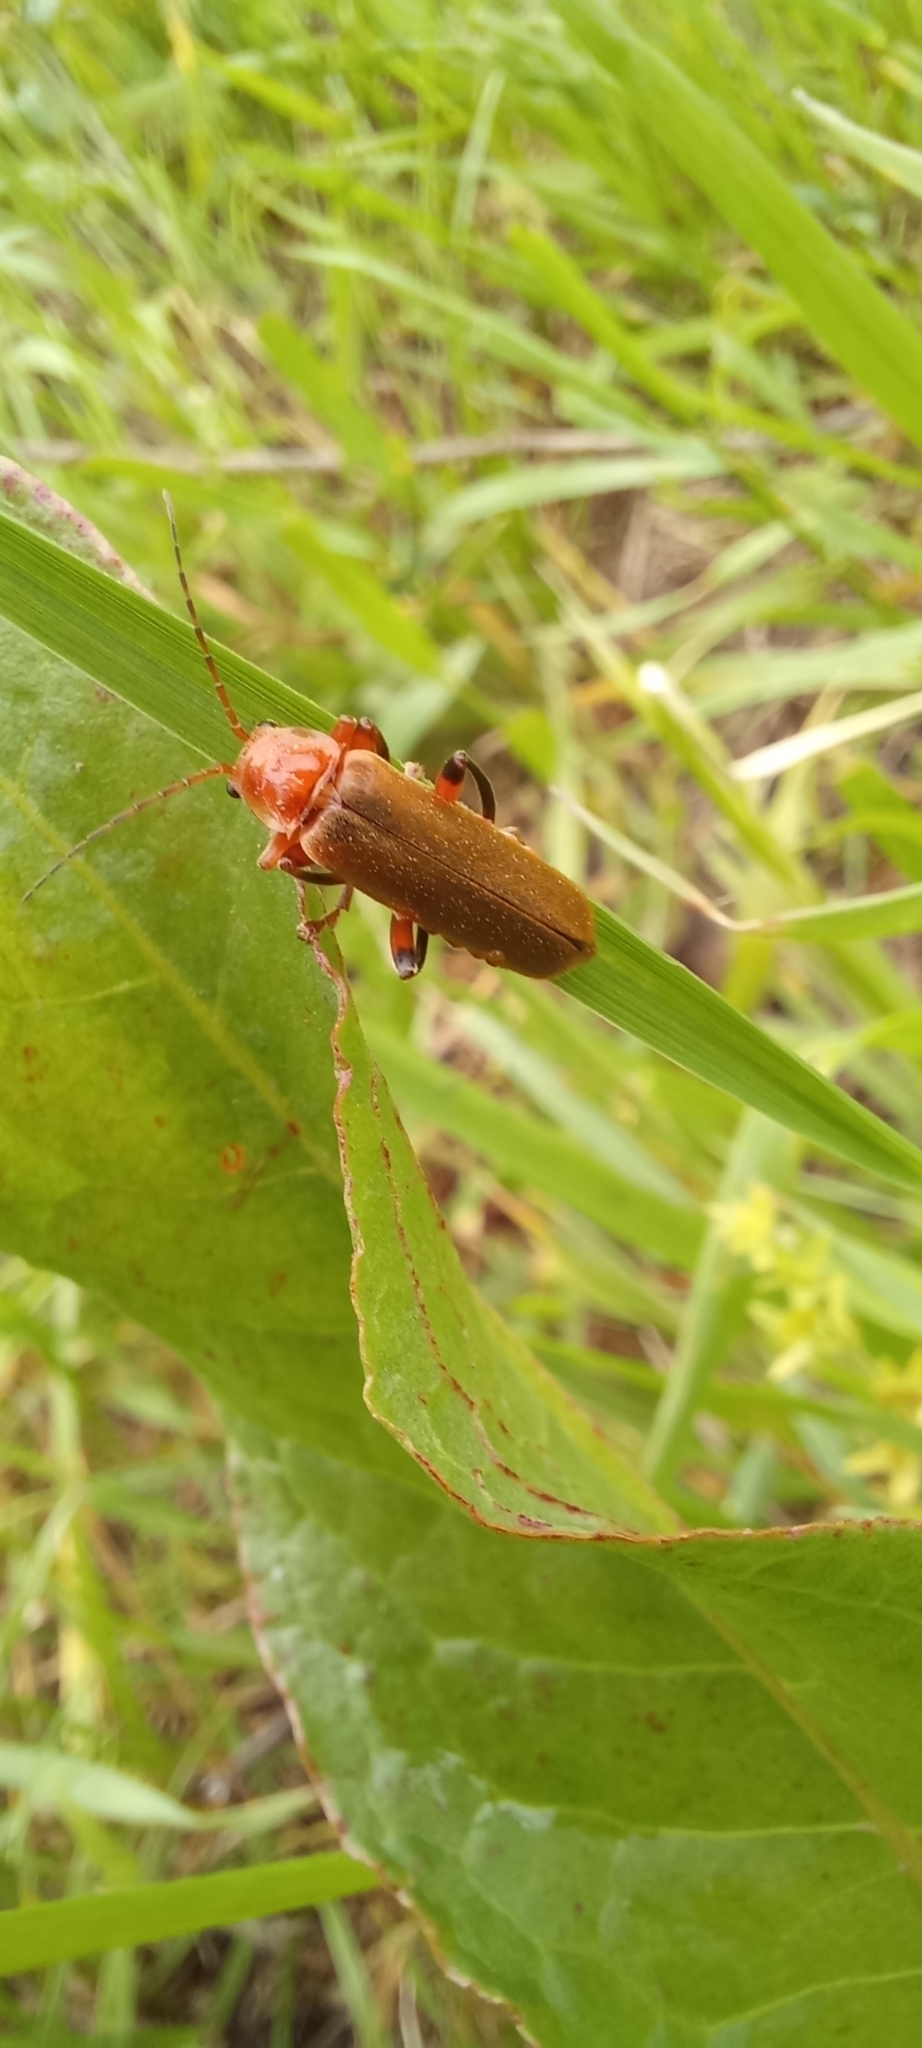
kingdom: Animalia
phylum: Arthropoda
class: Insecta
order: Coleoptera
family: Cantharidae
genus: Cantharis
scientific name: Cantharis livida
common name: Livid soldier beetle
